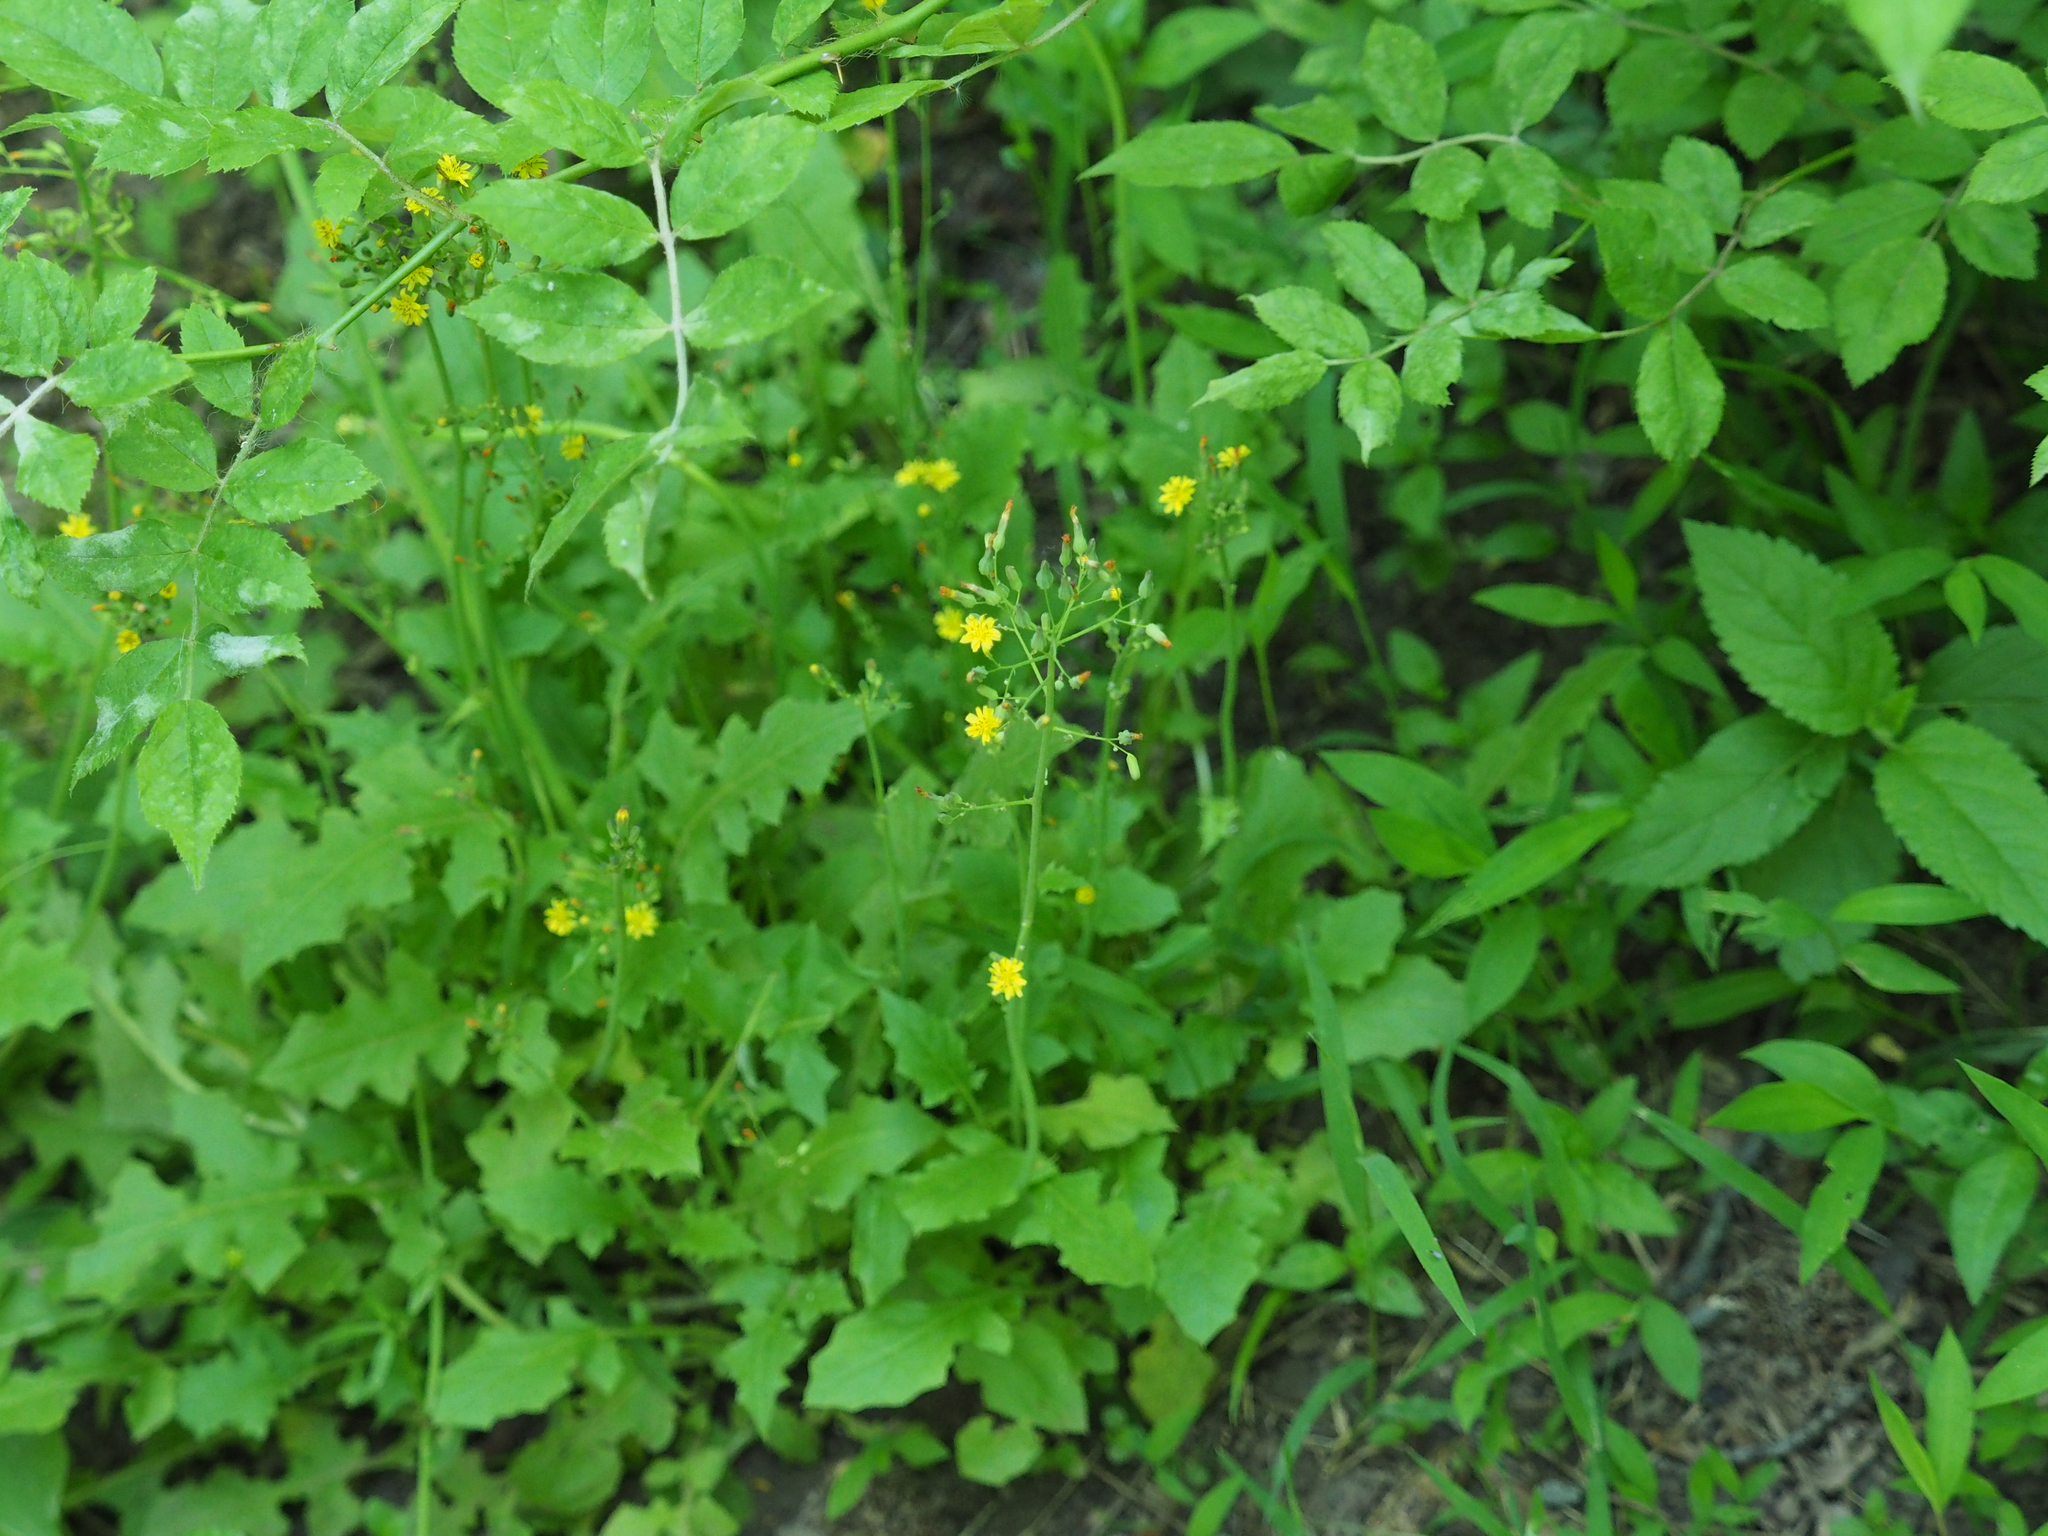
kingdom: Plantae
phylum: Tracheophyta
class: Magnoliopsida
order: Asterales
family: Asteraceae
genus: Youngia
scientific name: Youngia japonica
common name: Oriental false hawksbeard
